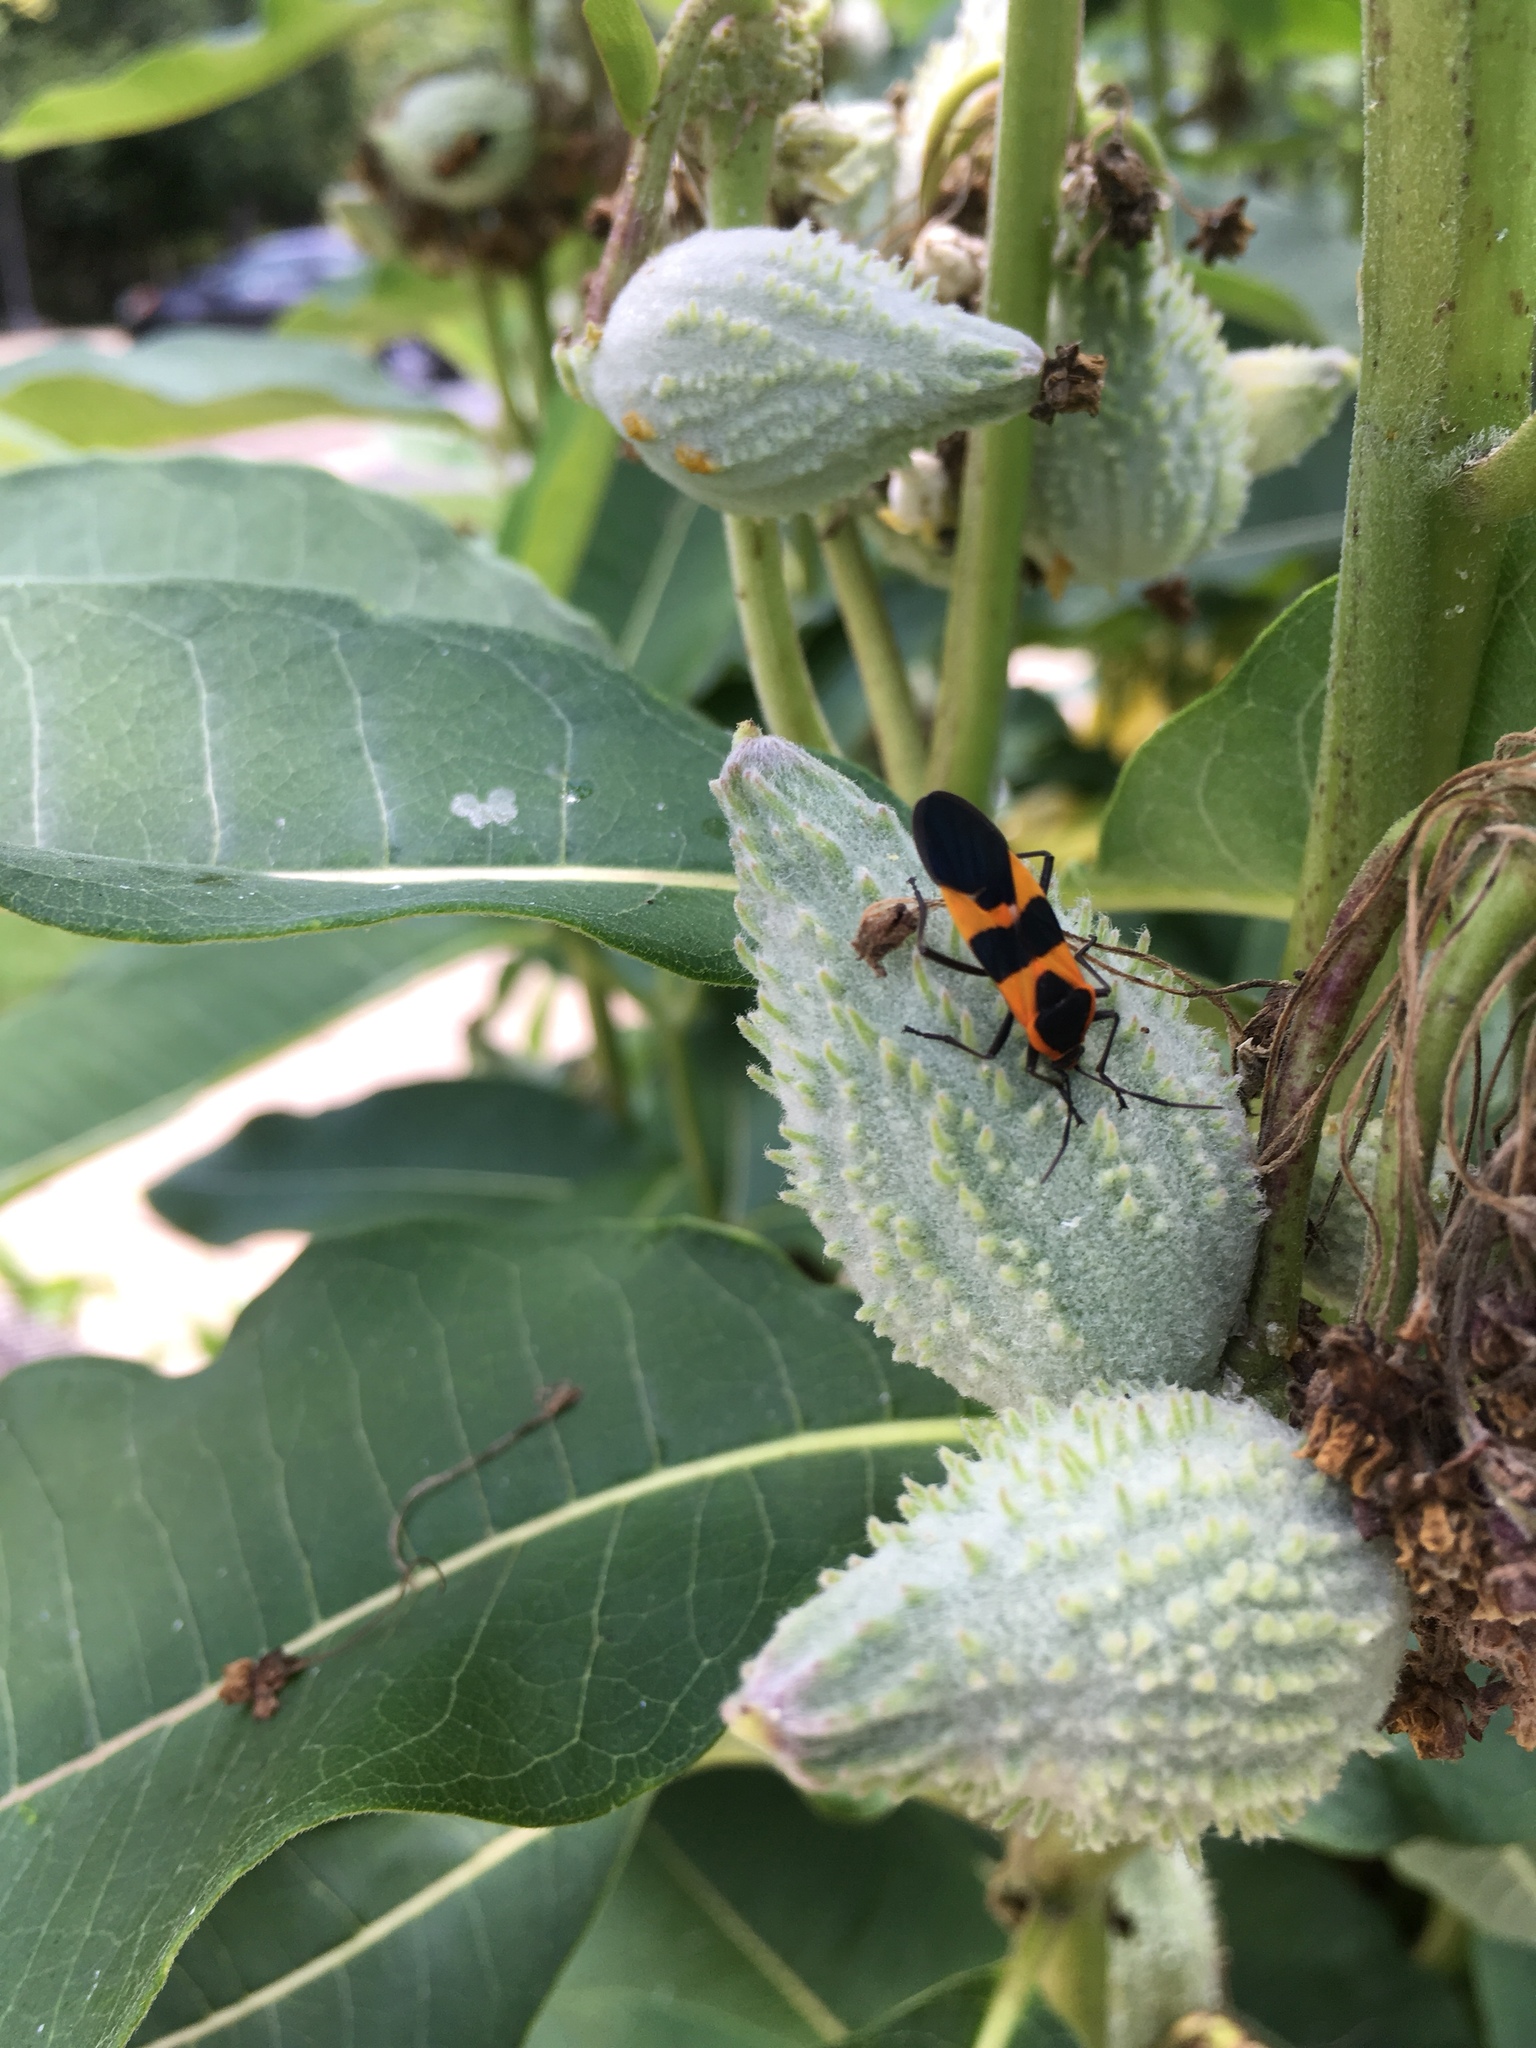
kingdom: Animalia
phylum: Arthropoda
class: Insecta
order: Hemiptera
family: Lygaeidae
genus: Oncopeltus
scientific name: Oncopeltus fasciatus
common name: Large milkweed bug
